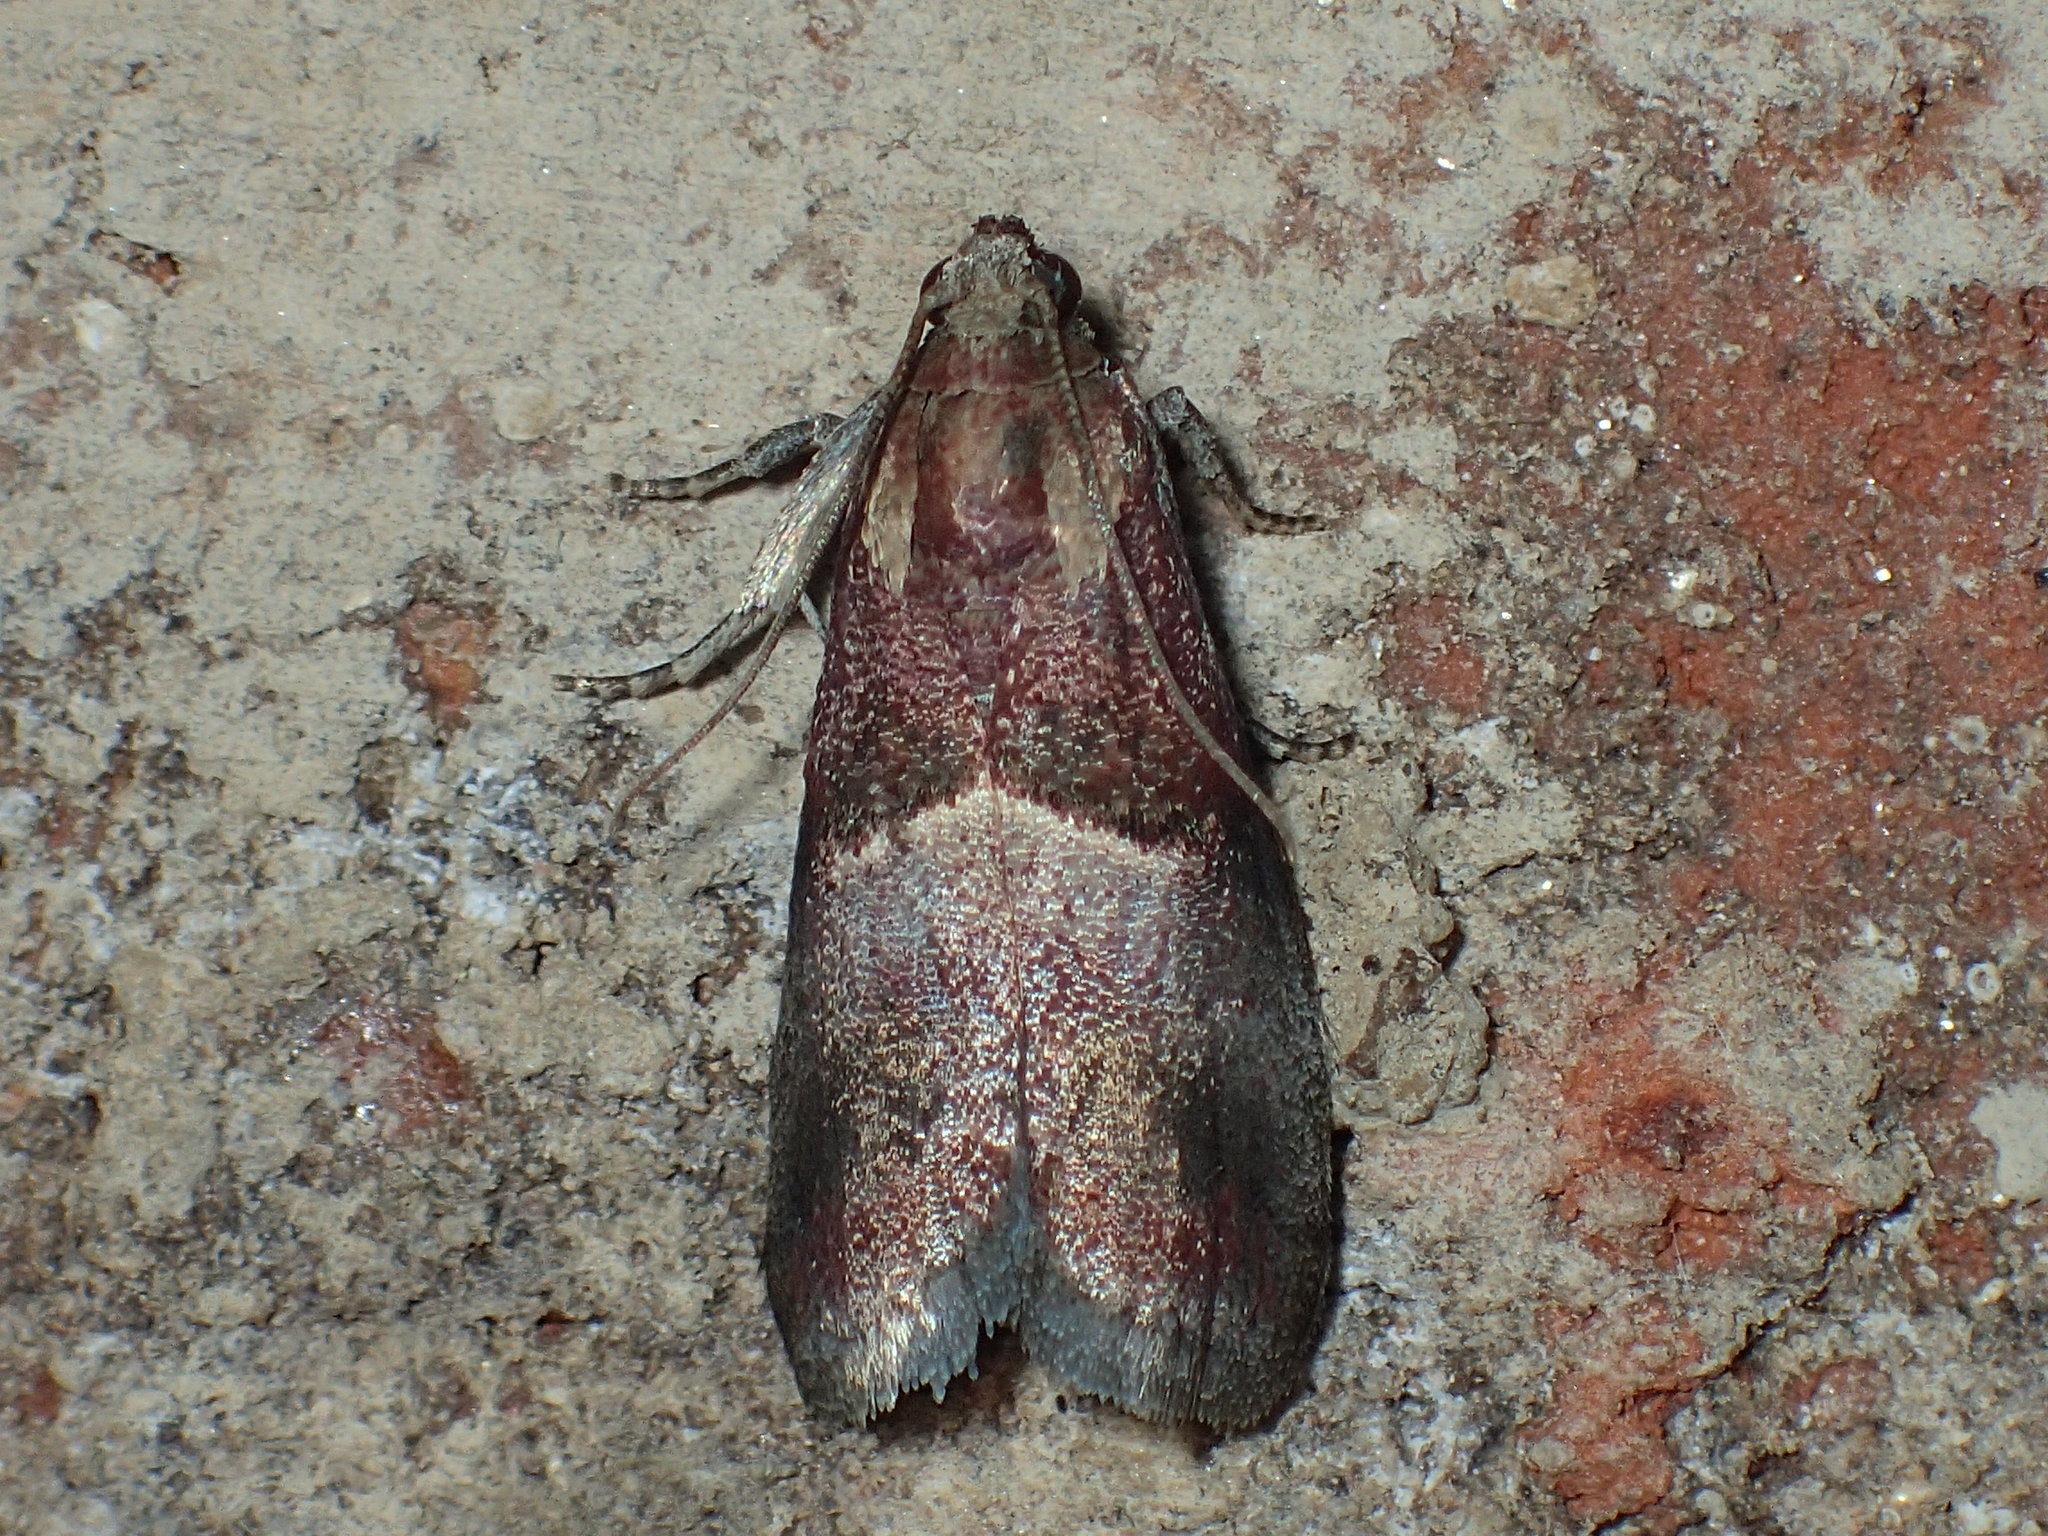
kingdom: Animalia
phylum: Arthropoda
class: Insecta
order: Lepidoptera
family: Pyralidae
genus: Acrobasis
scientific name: Acrobasis exsulella
